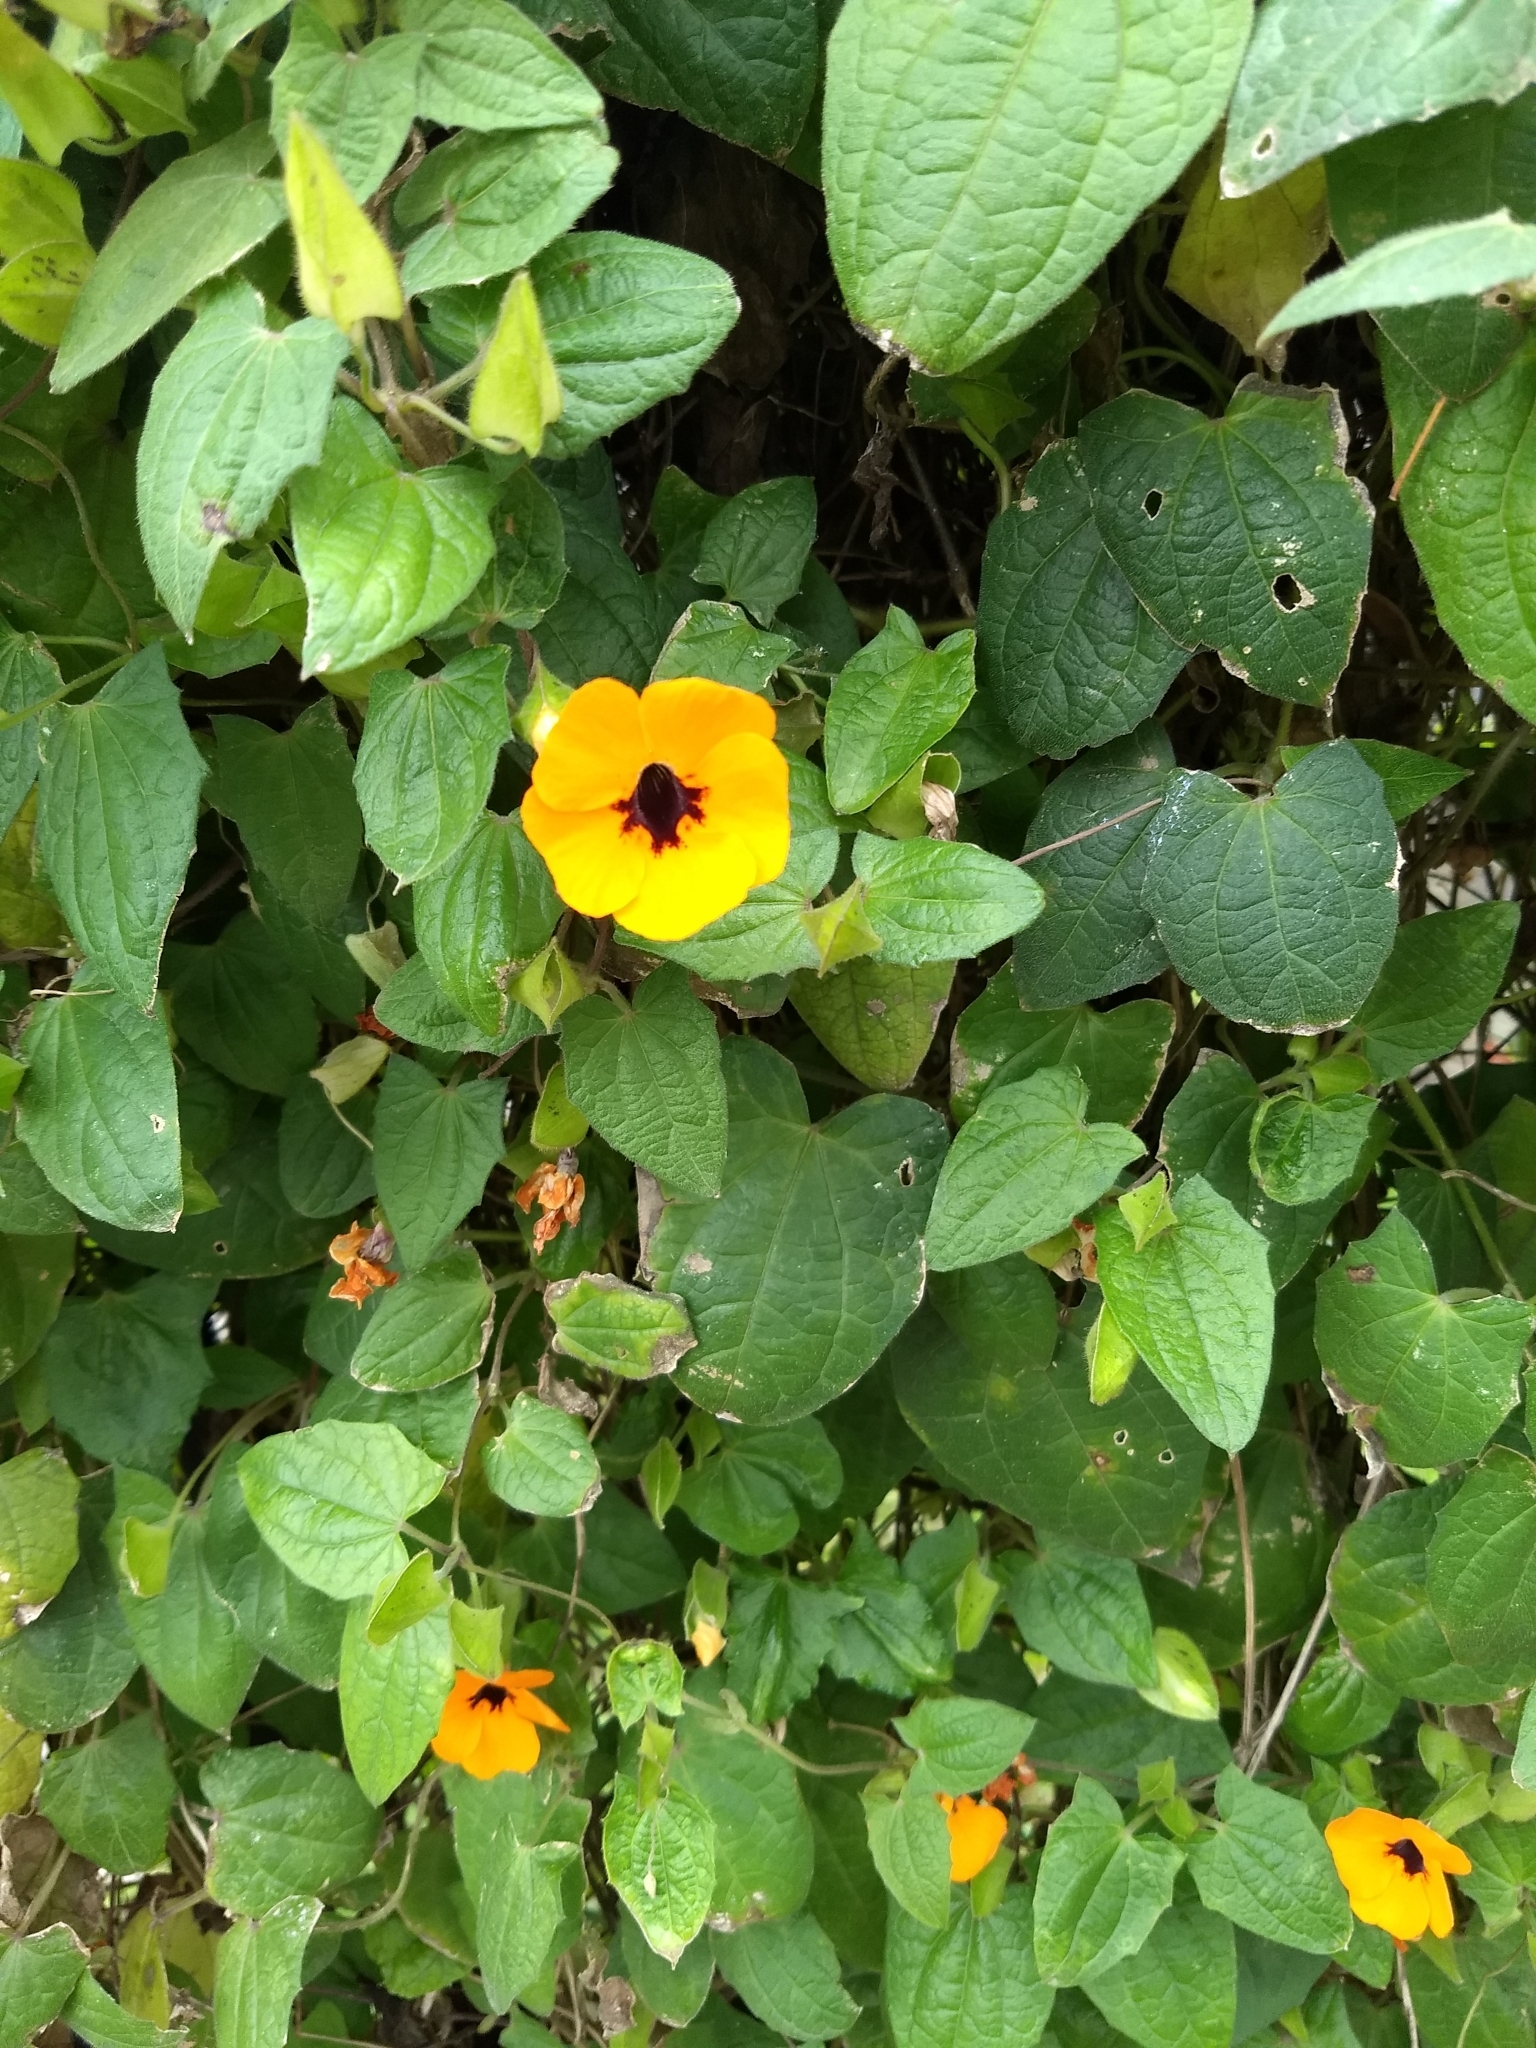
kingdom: Plantae
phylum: Tracheophyta
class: Magnoliopsida
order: Lamiales
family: Acanthaceae
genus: Thunbergia
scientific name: Thunbergia alata
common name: Blackeyed susan vine
